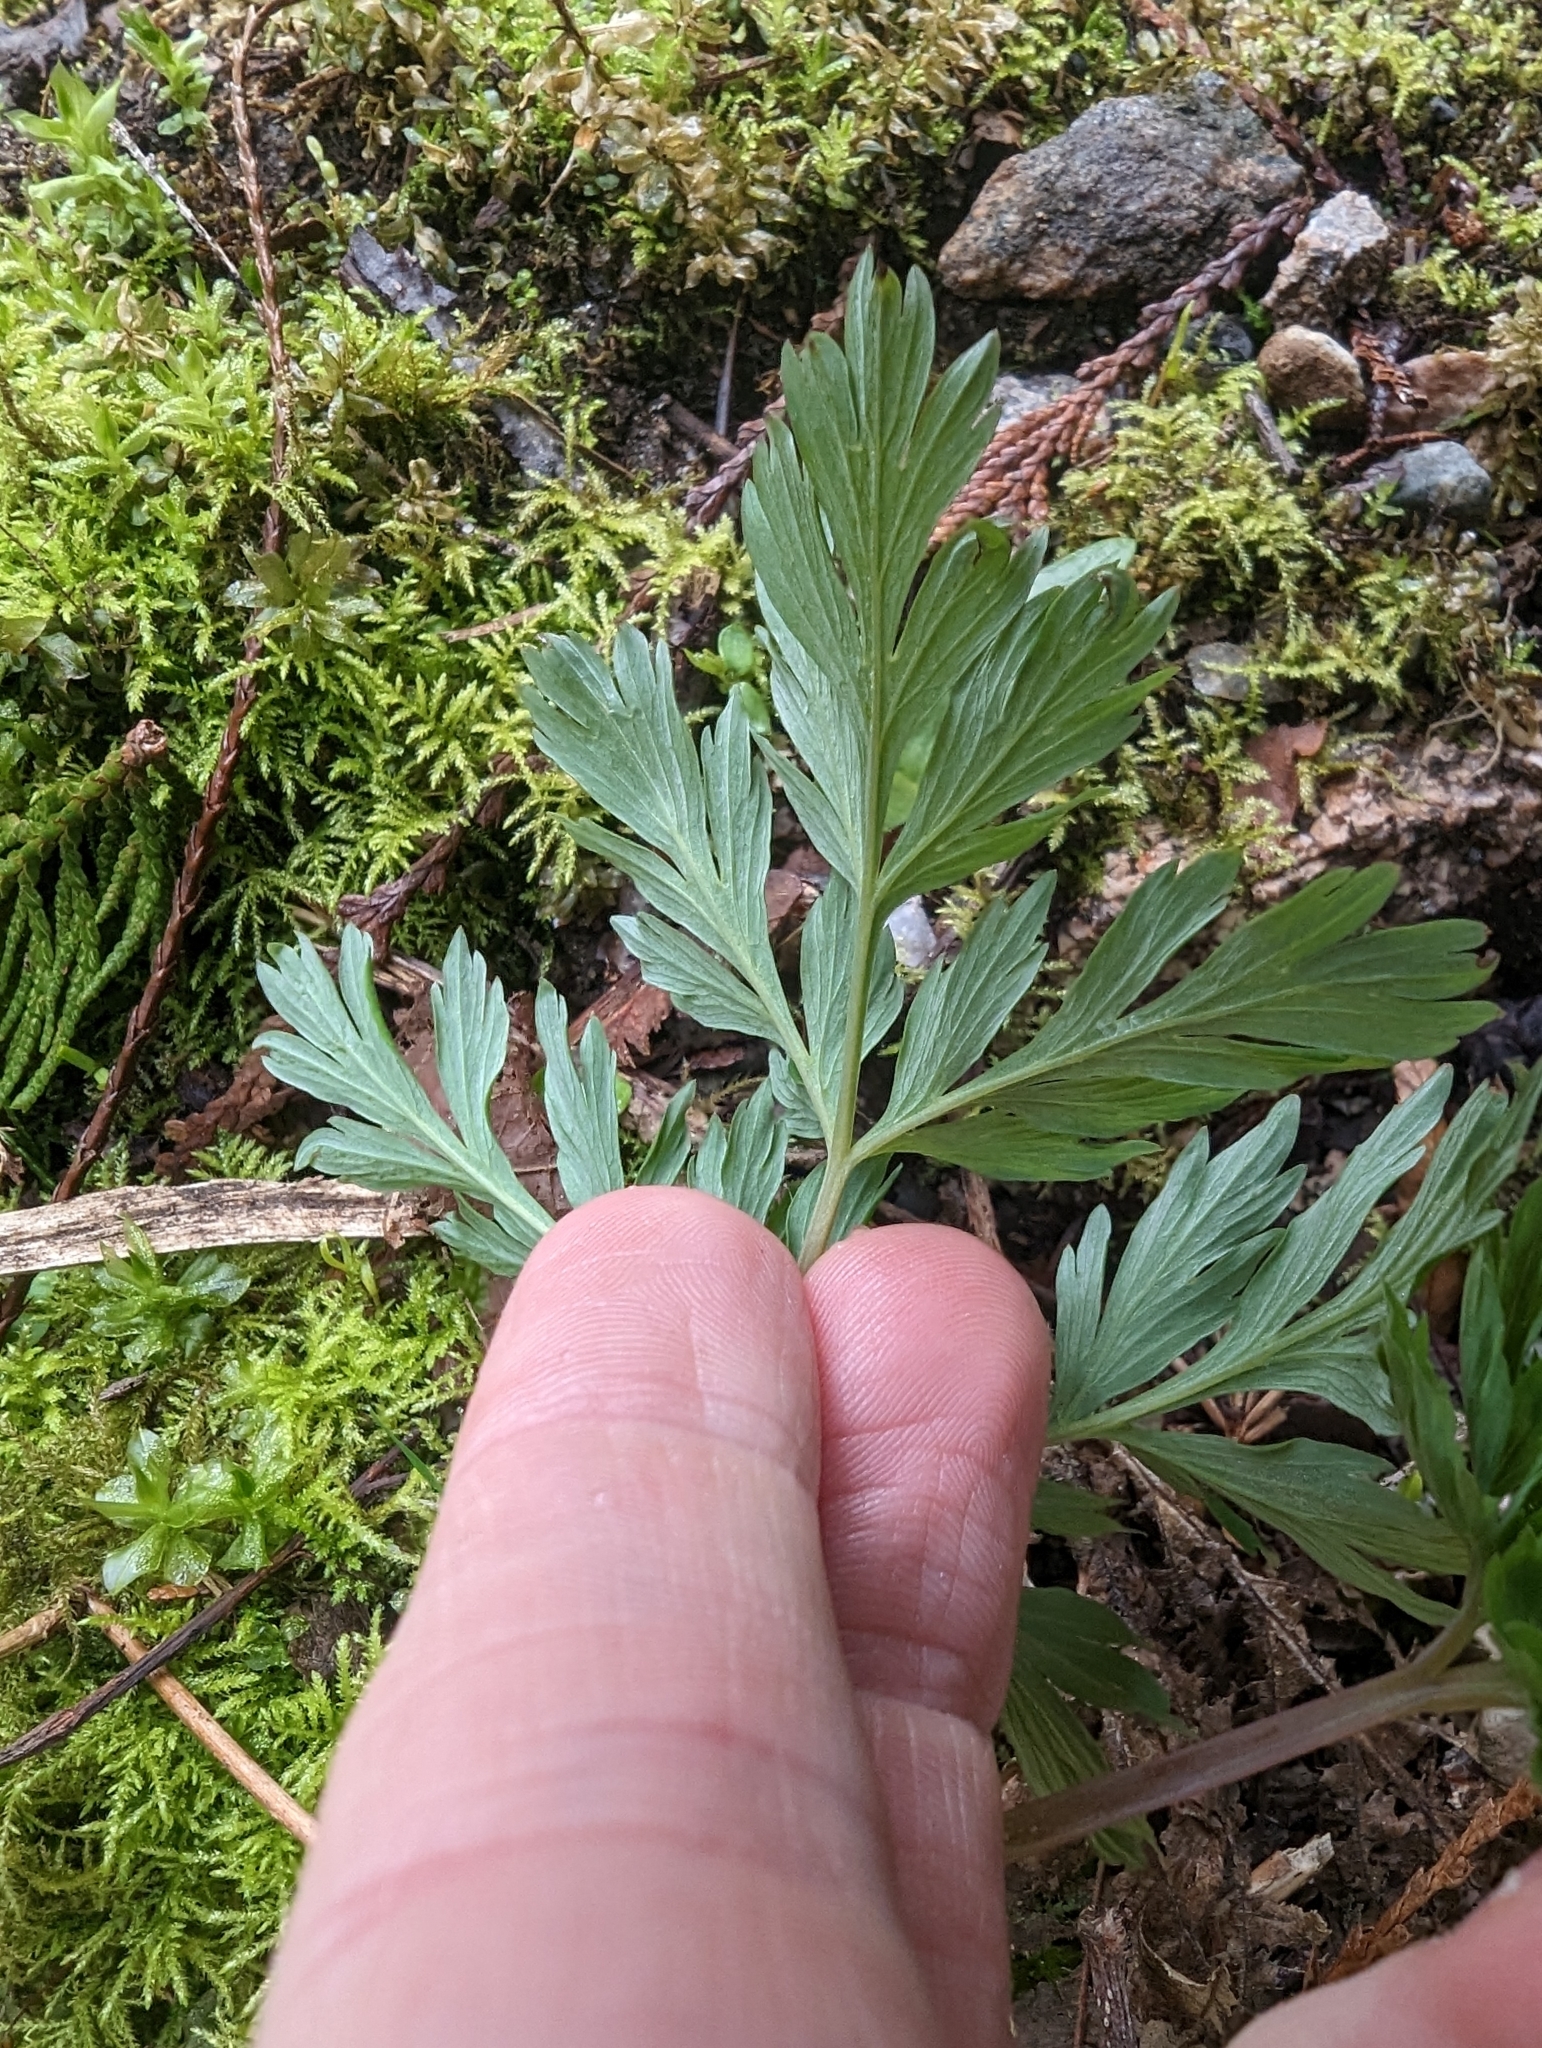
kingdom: Plantae
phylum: Tracheophyta
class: Magnoliopsida
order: Ranunculales
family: Papaveraceae
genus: Dicentra
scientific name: Dicentra formosa
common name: Bleeding-heart
